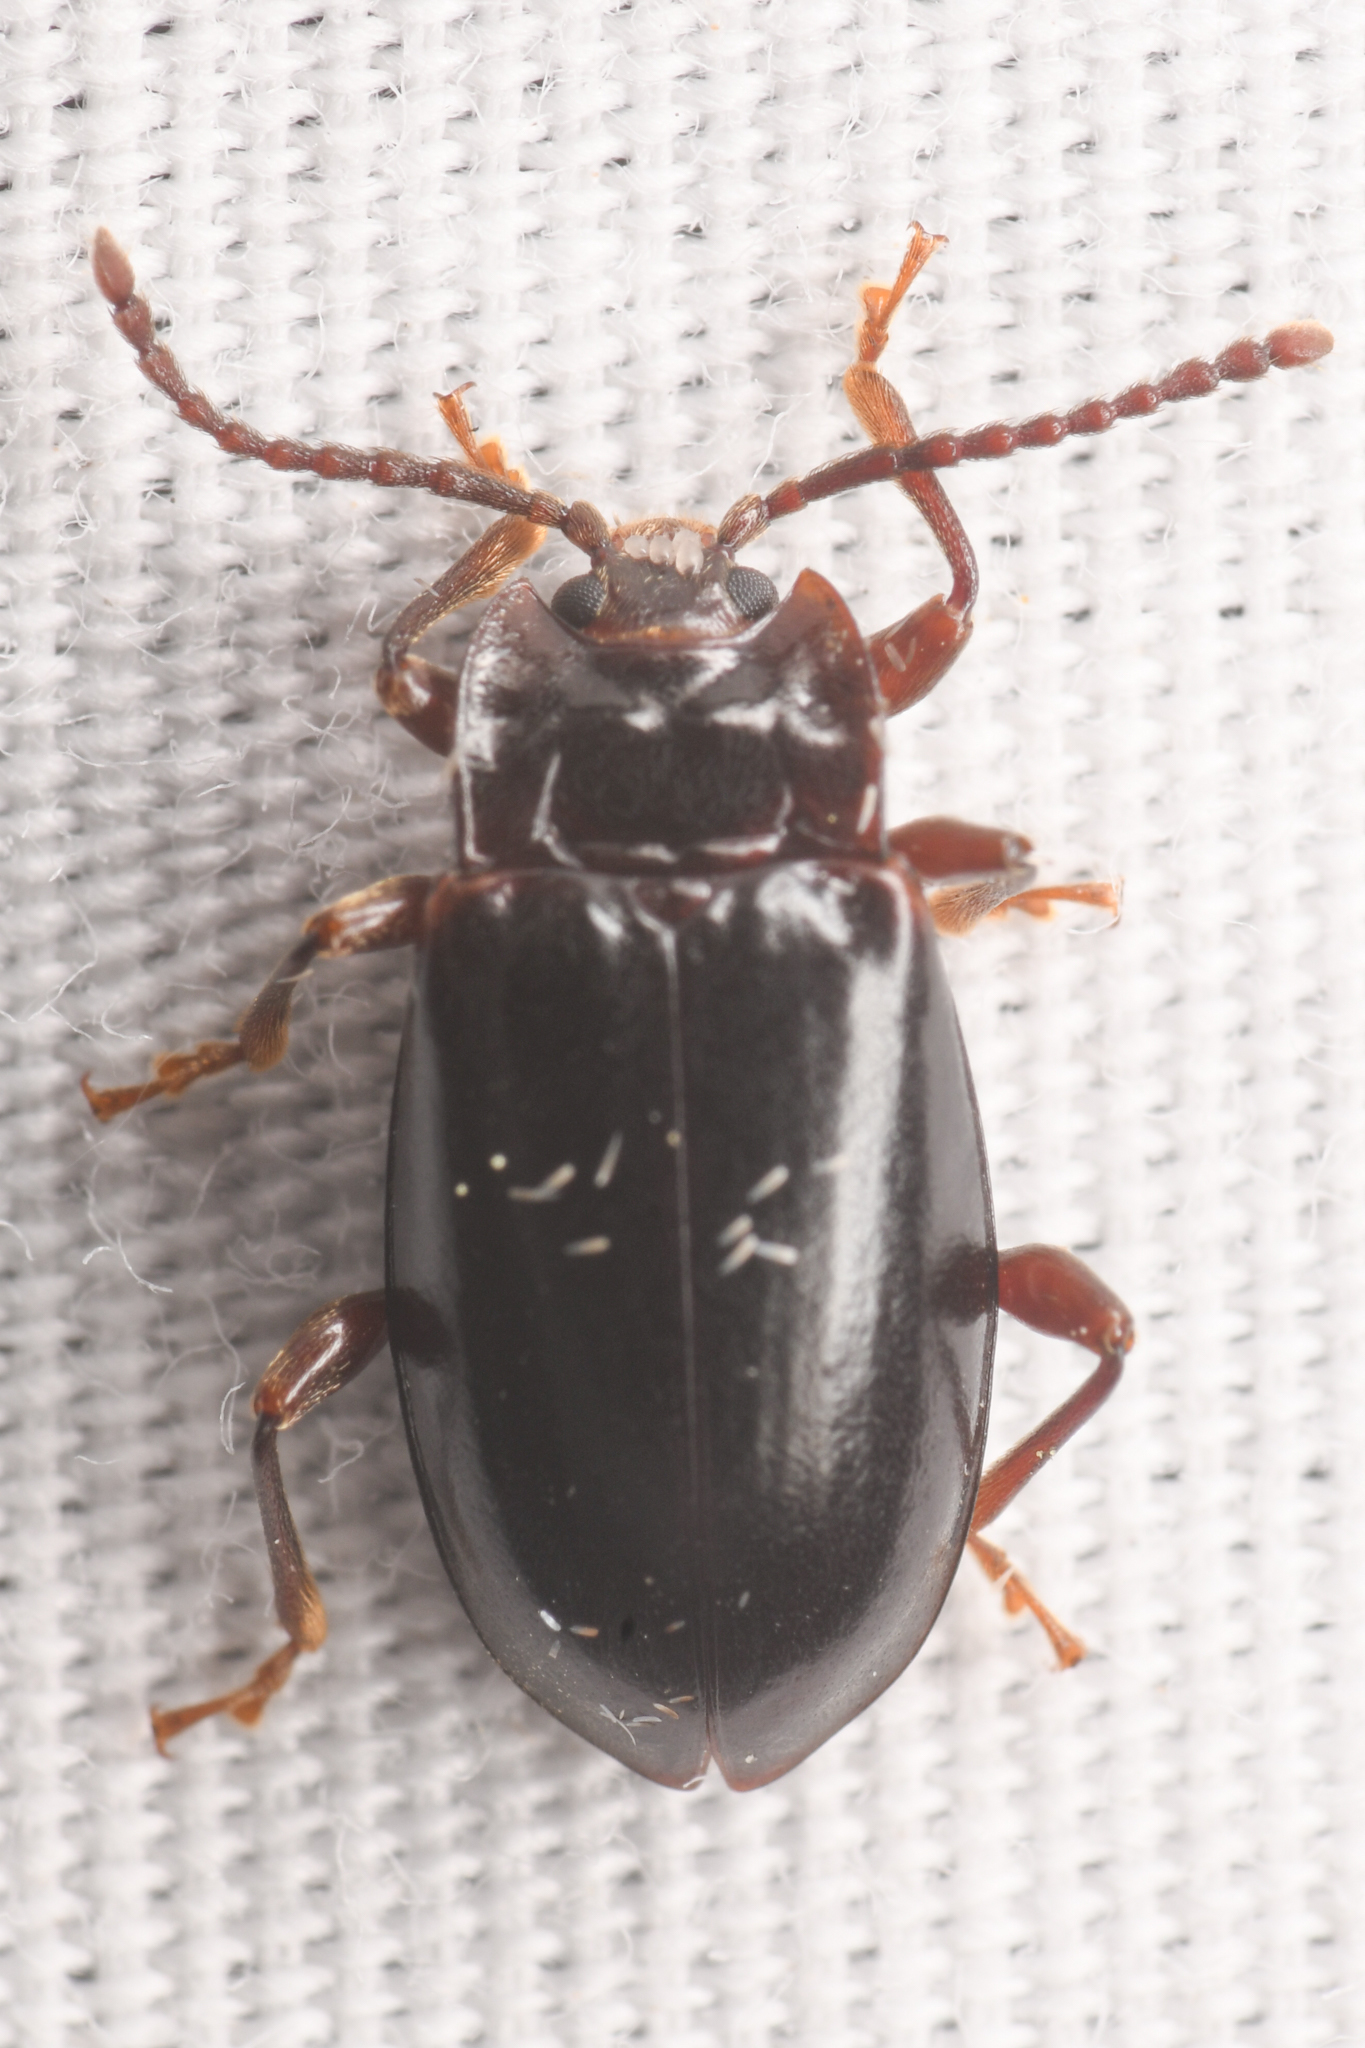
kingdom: Animalia
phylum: Arthropoda
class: Insecta
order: Coleoptera
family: Endomychidae
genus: Aphorista
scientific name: Aphorista morosa
